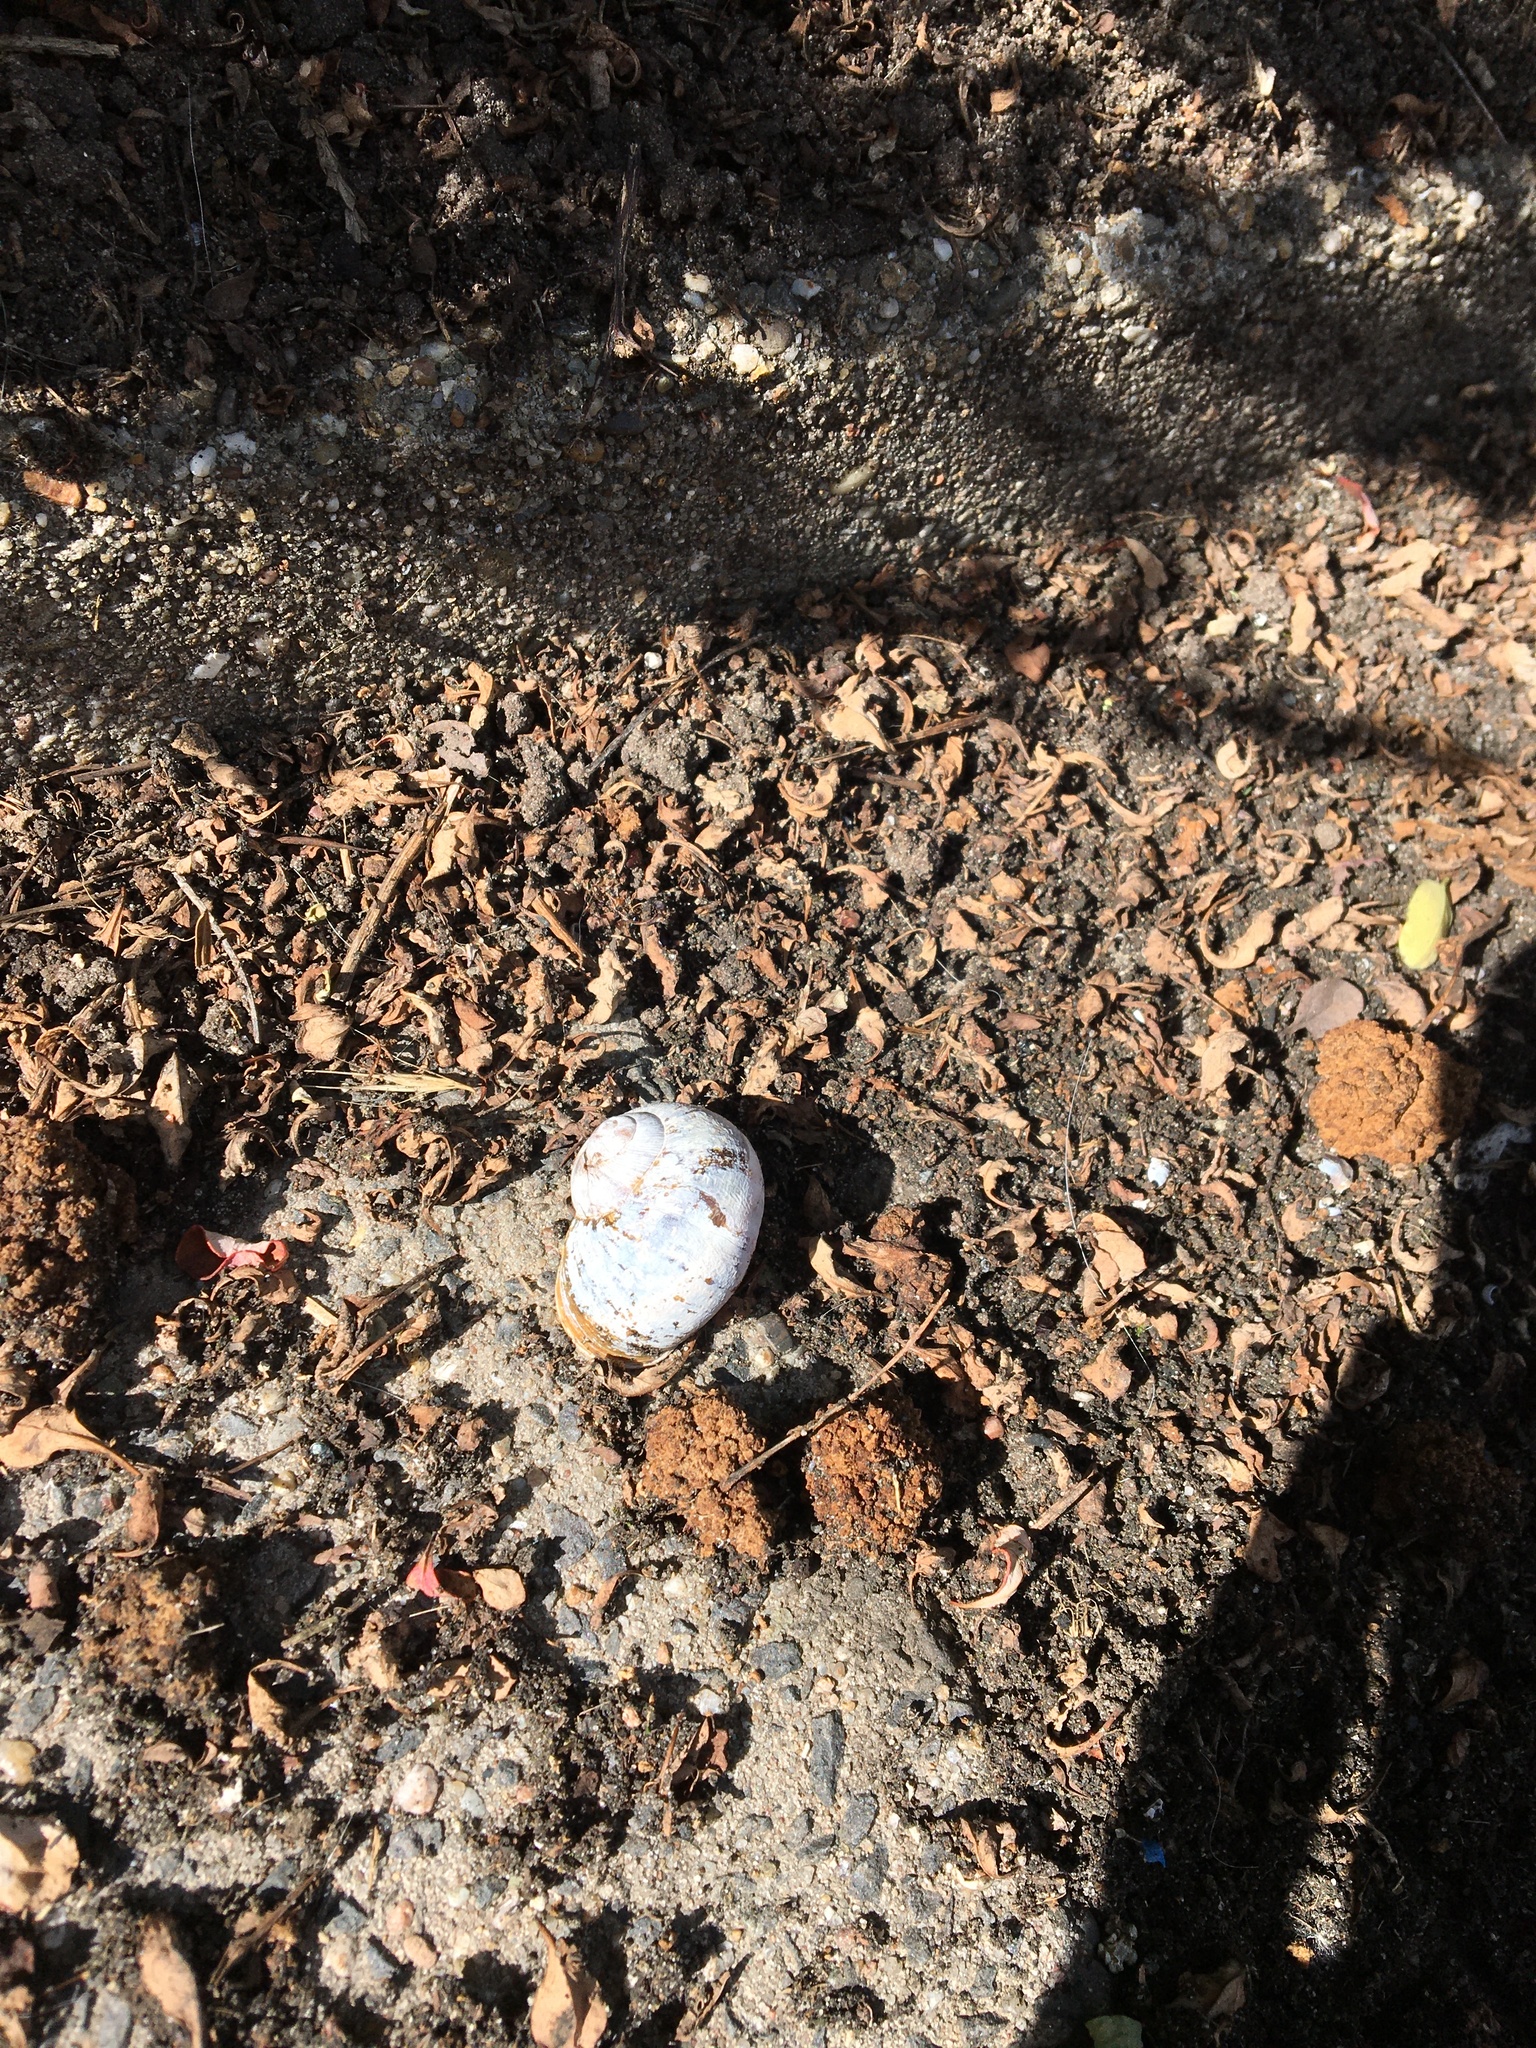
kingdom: Animalia
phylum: Mollusca
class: Gastropoda
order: Stylommatophora
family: Helicidae
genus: Cornu
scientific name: Cornu aspersum
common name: Brown garden snail
